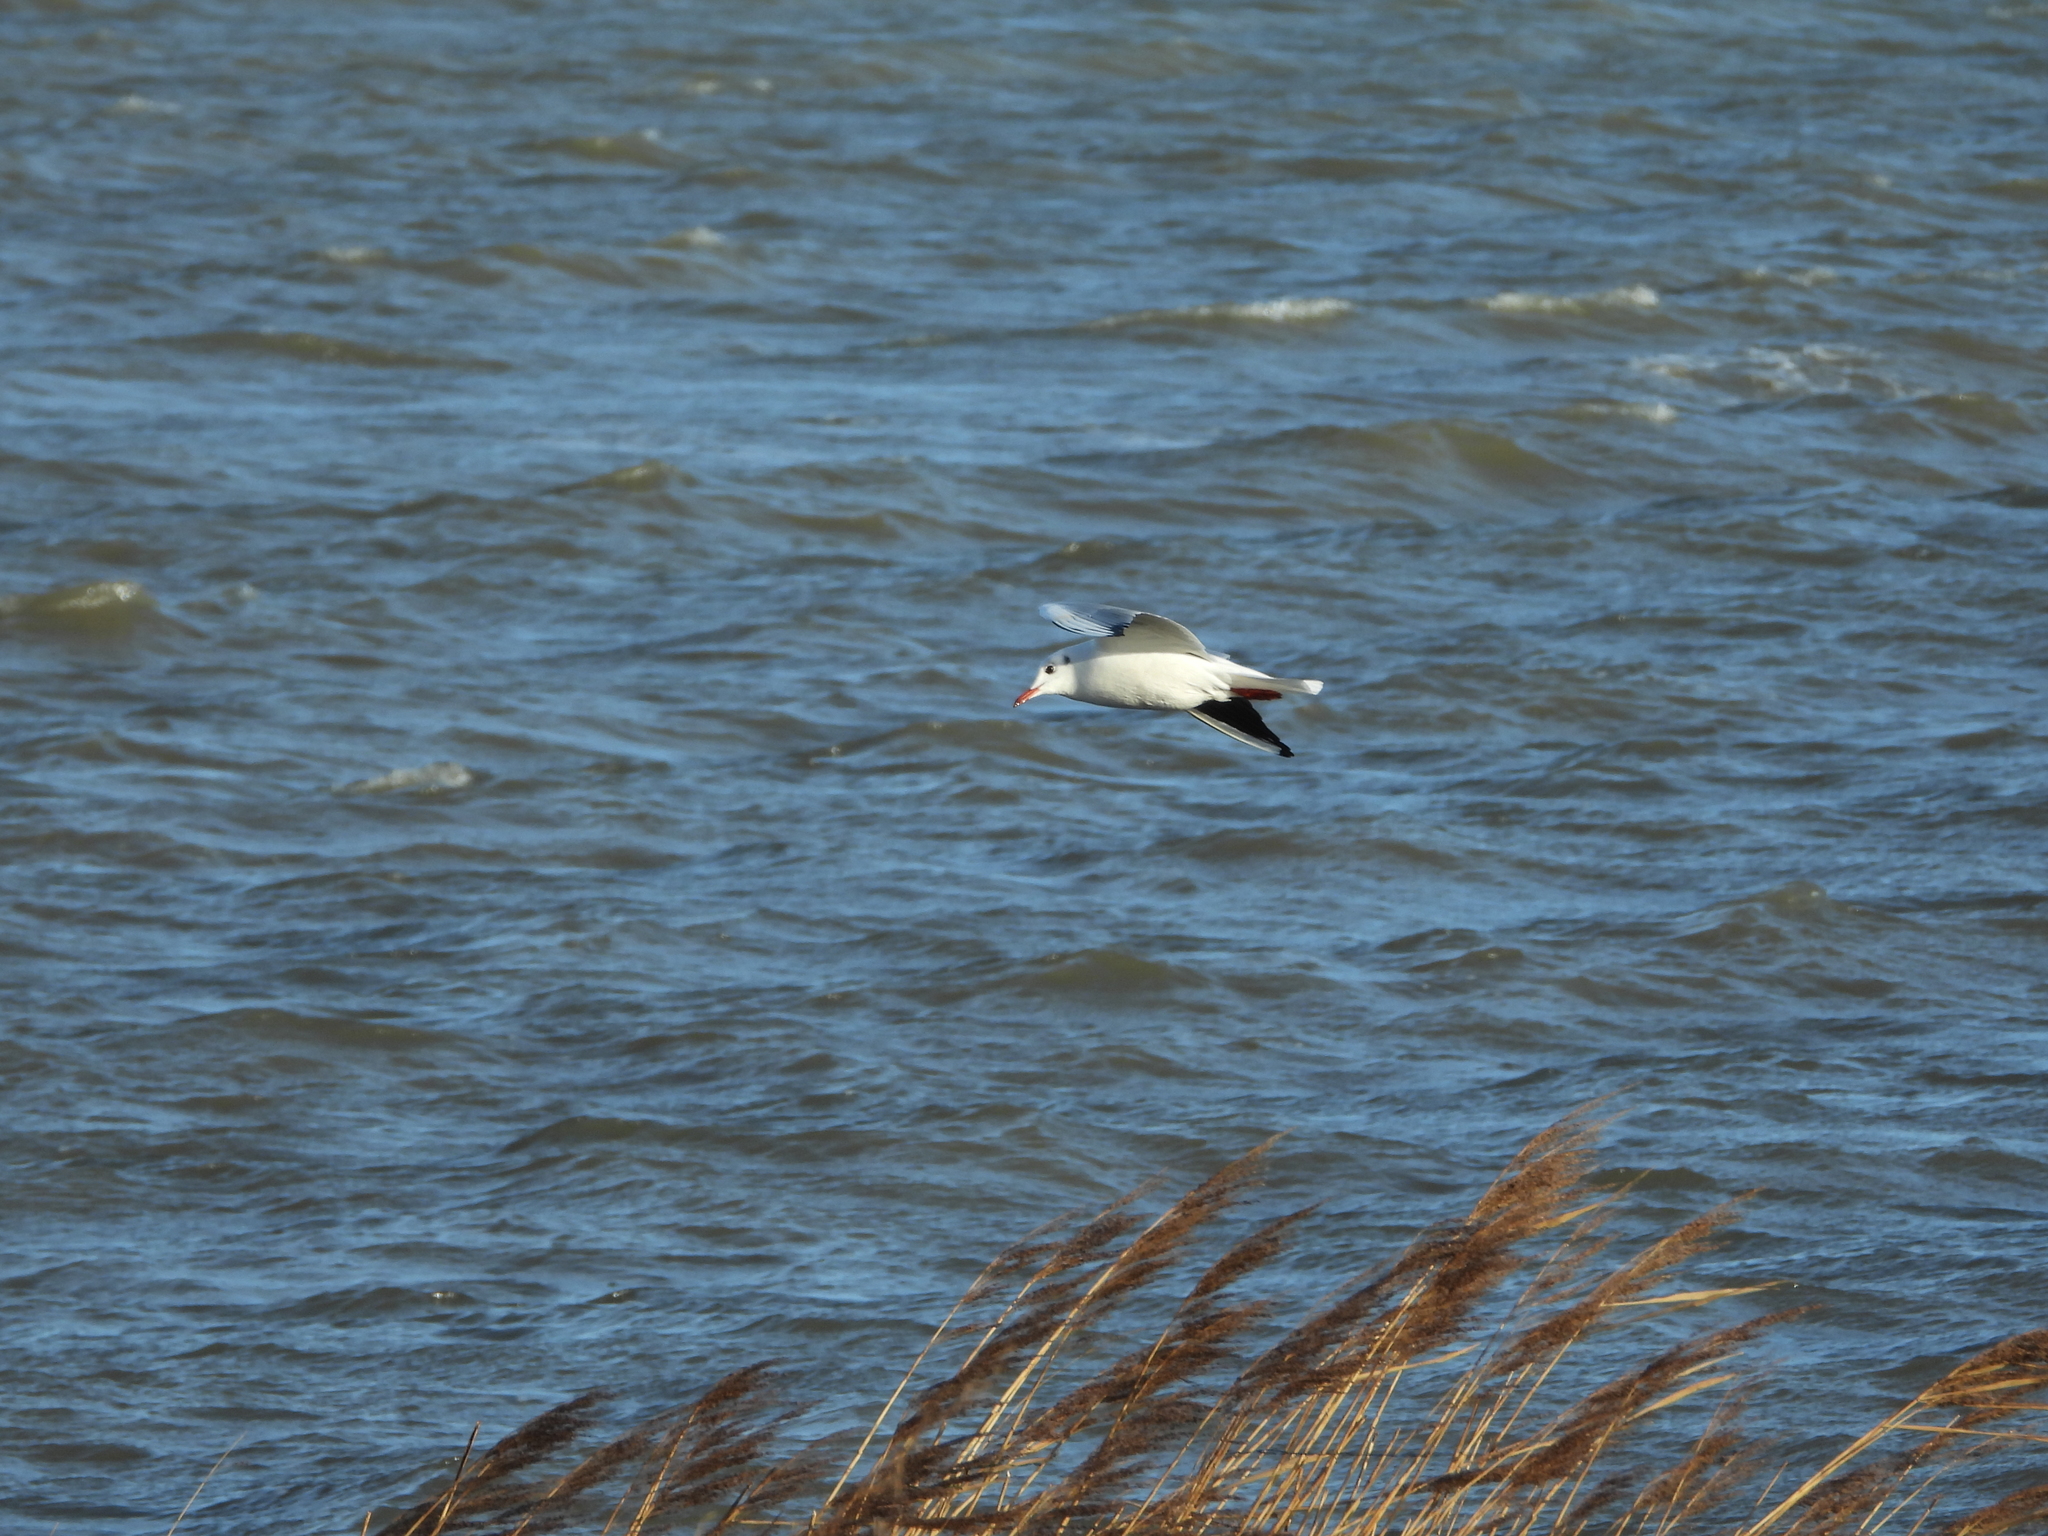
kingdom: Animalia
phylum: Chordata
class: Aves
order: Charadriiformes
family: Laridae
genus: Chroicocephalus
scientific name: Chroicocephalus ridibundus
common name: Black-headed gull
